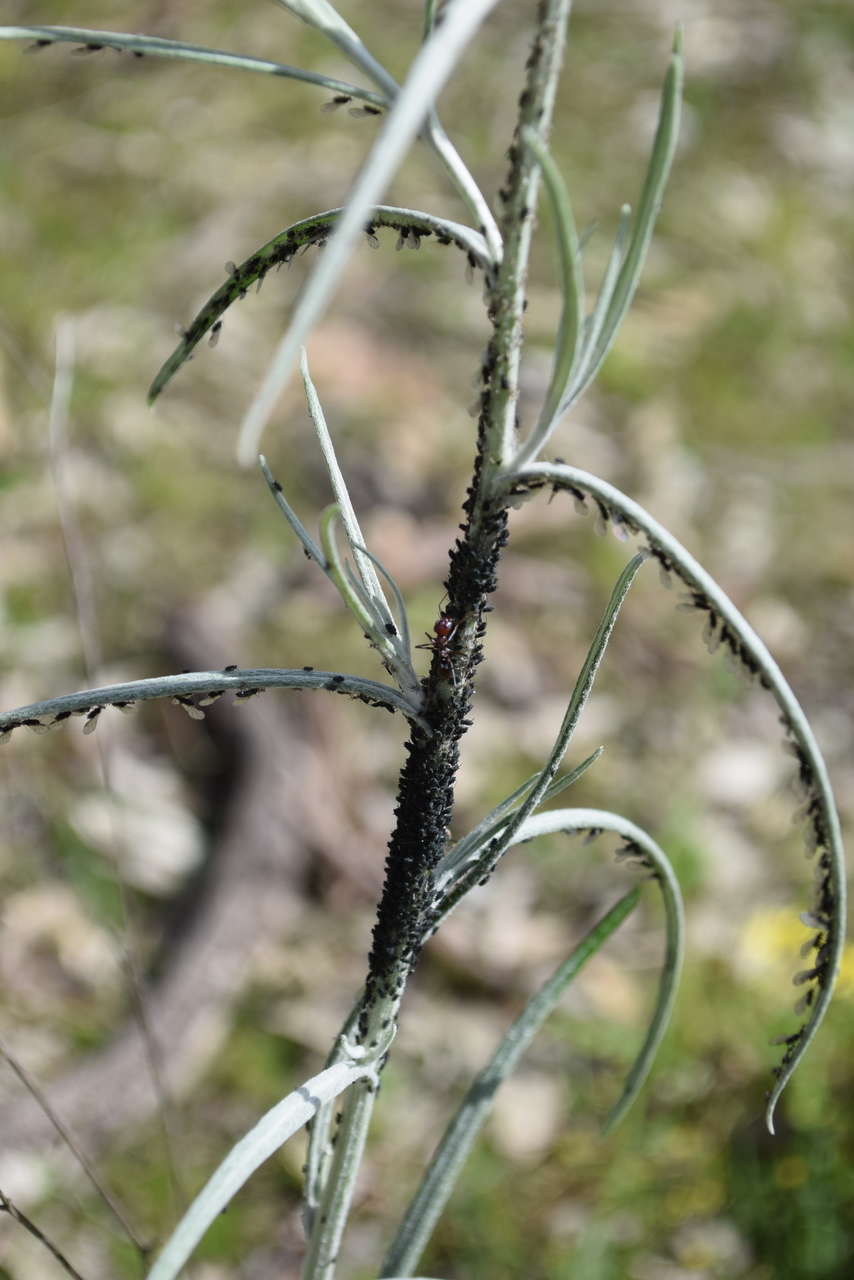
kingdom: Plantae
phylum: Tracheophyta
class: Magnoliopsida
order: Asterales
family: Asteraceae
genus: Senecio
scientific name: Senecio quadridentatus
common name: Cotton fireweed
